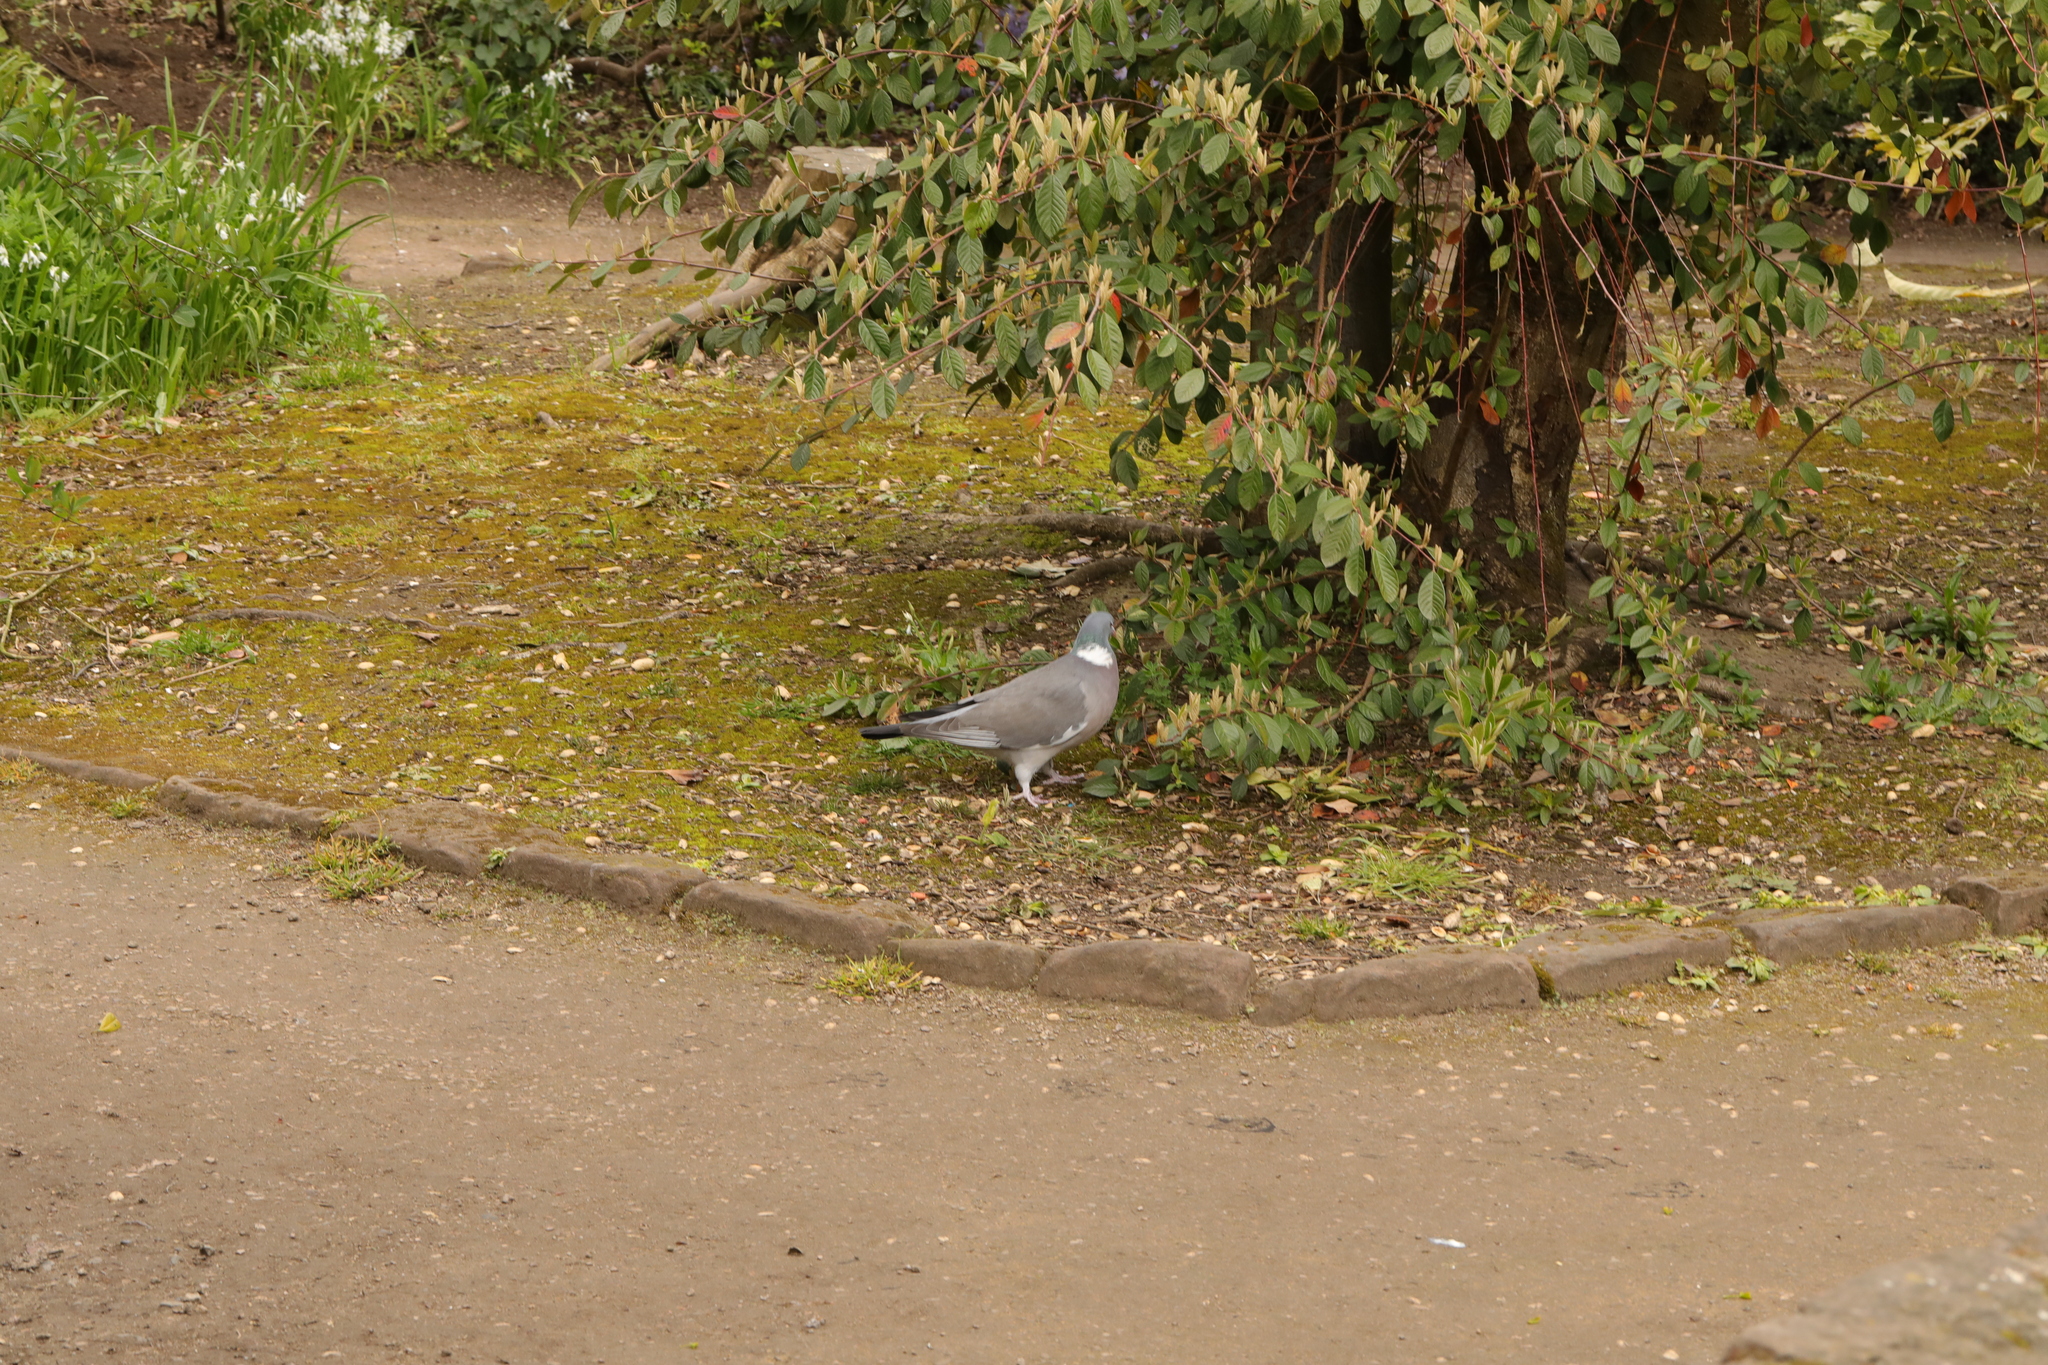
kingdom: Animalia
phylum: Chordata
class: Aves
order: Columbiformes
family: Columbidae
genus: Columba
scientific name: Columba palumbus
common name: Common wood pigeon
